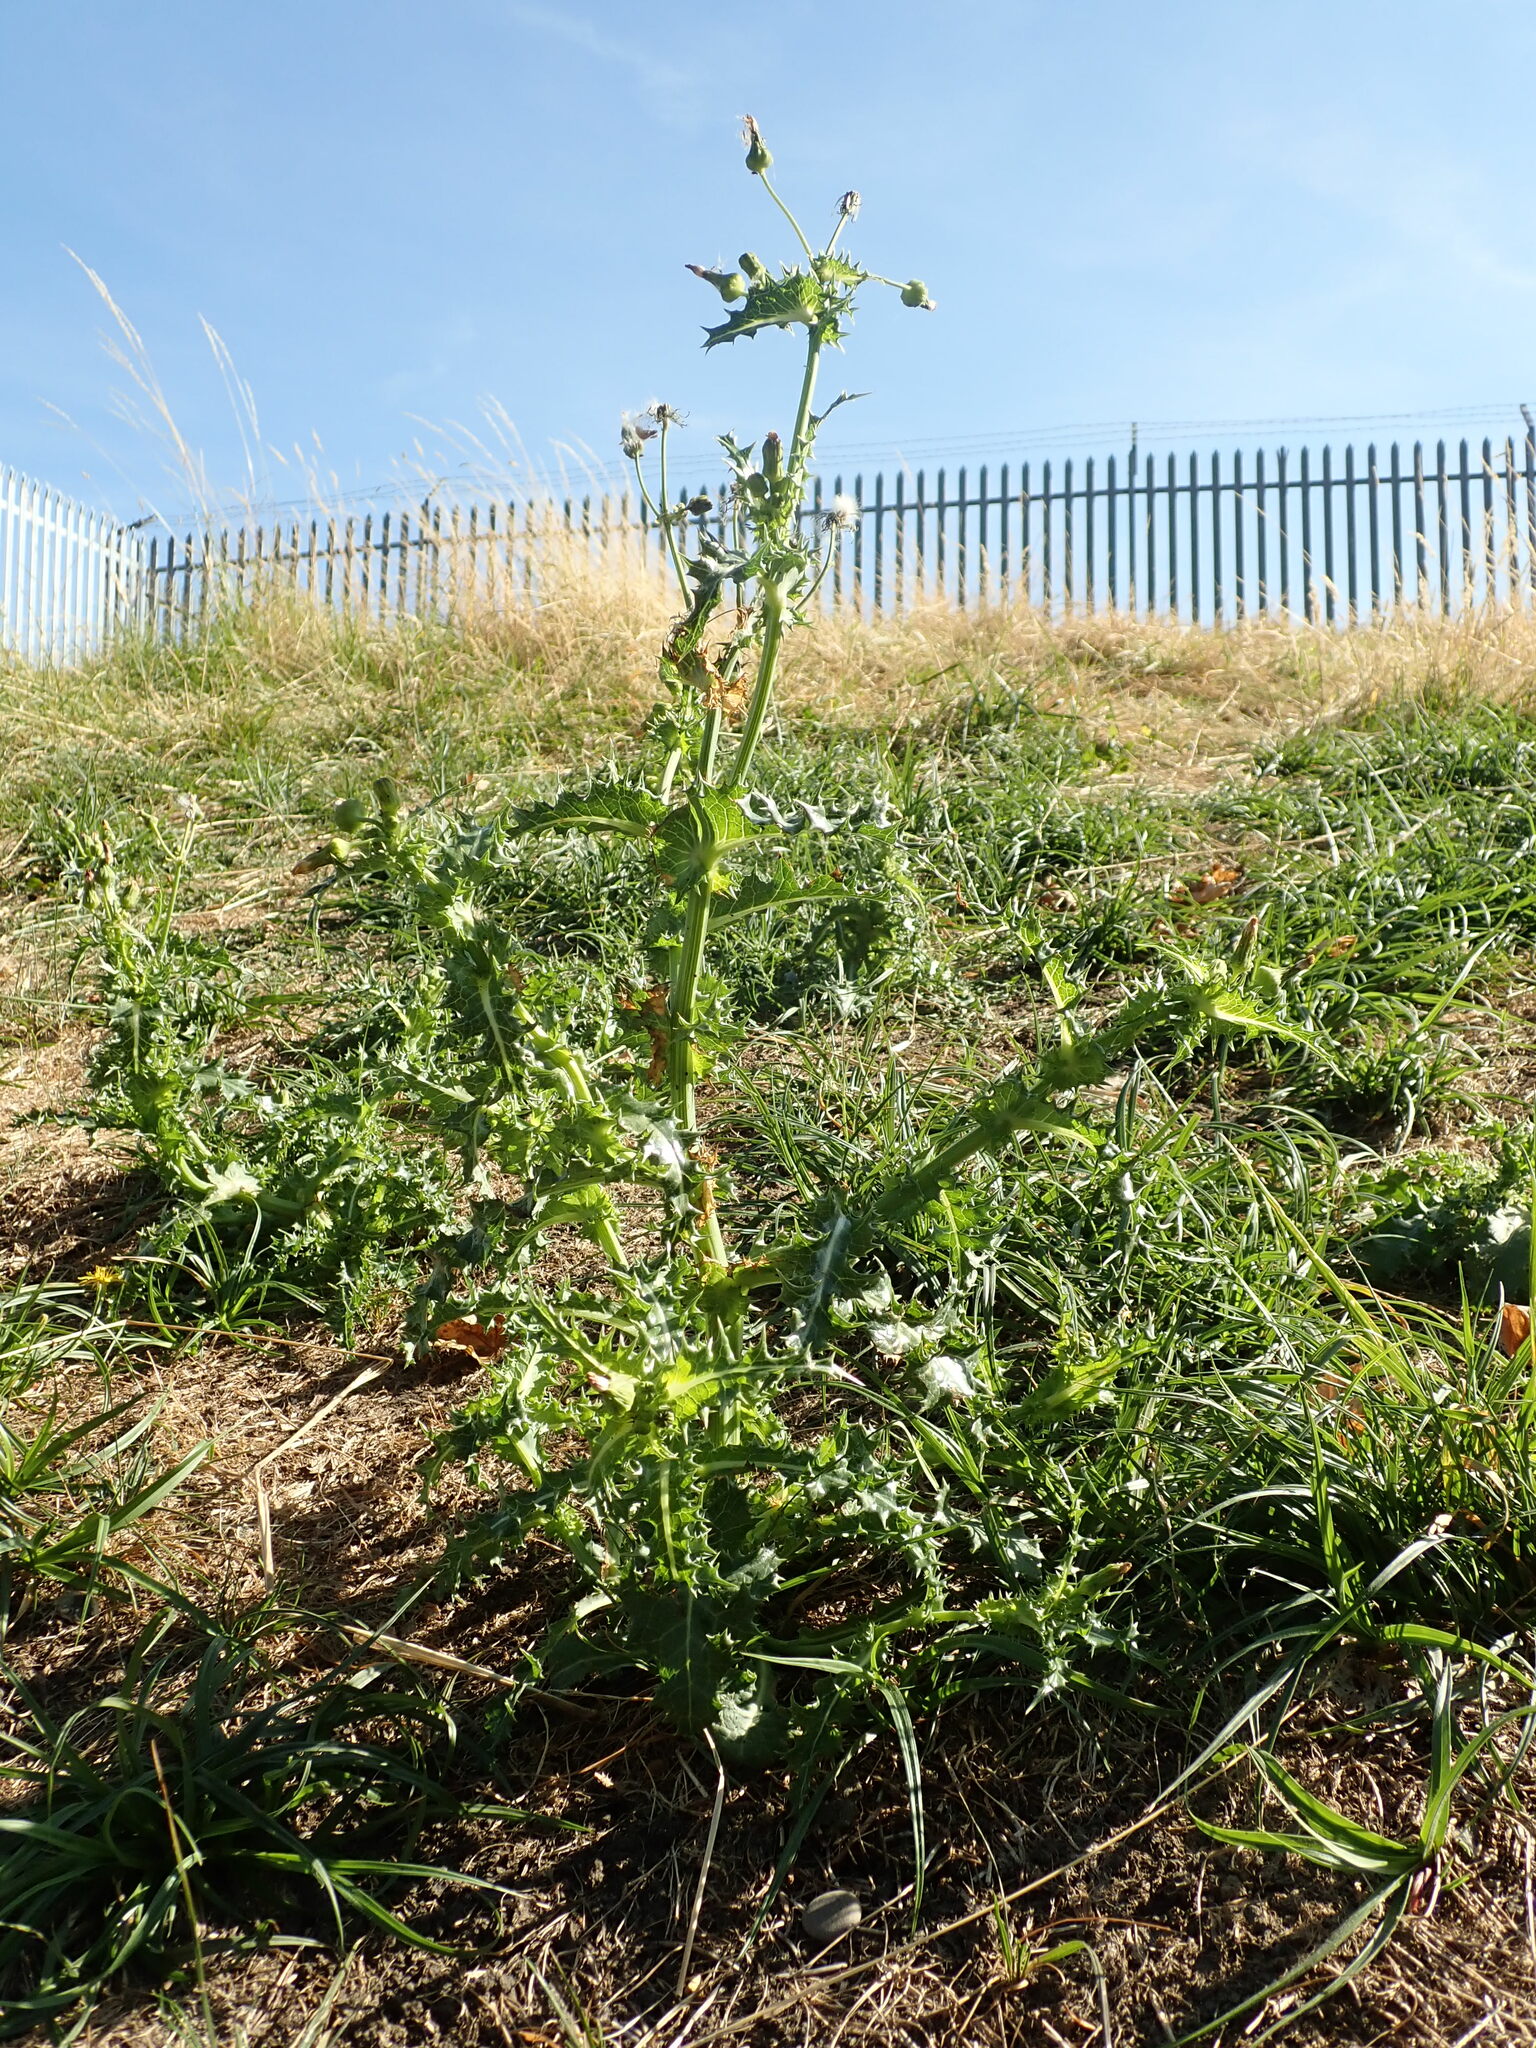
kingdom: Plantae
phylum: Tracheophyta
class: Magnoliopsida
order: Asterales
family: Asteraceae
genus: Sonchus
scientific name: Sonchus asper
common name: Prickly sow-thistle
